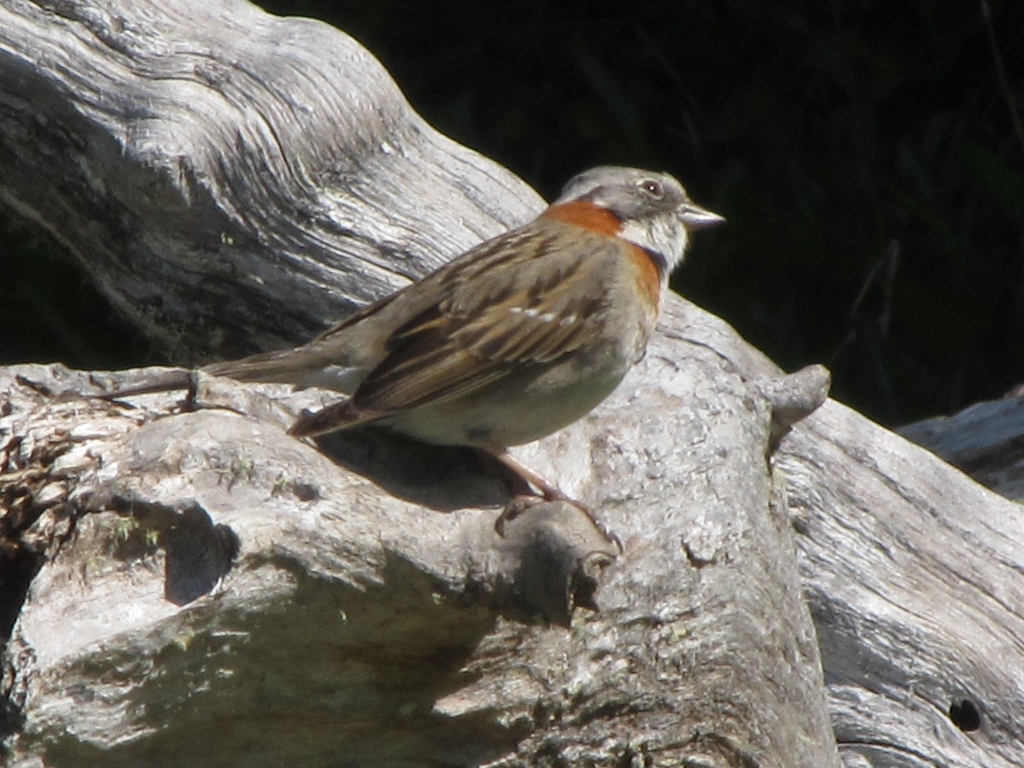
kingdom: Animalia
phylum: Chordata
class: Aves
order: Passeriformes
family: Passerellidae
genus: Zonotrichia
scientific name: Zonotrichia capensis
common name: Rufous-collared sparrow
